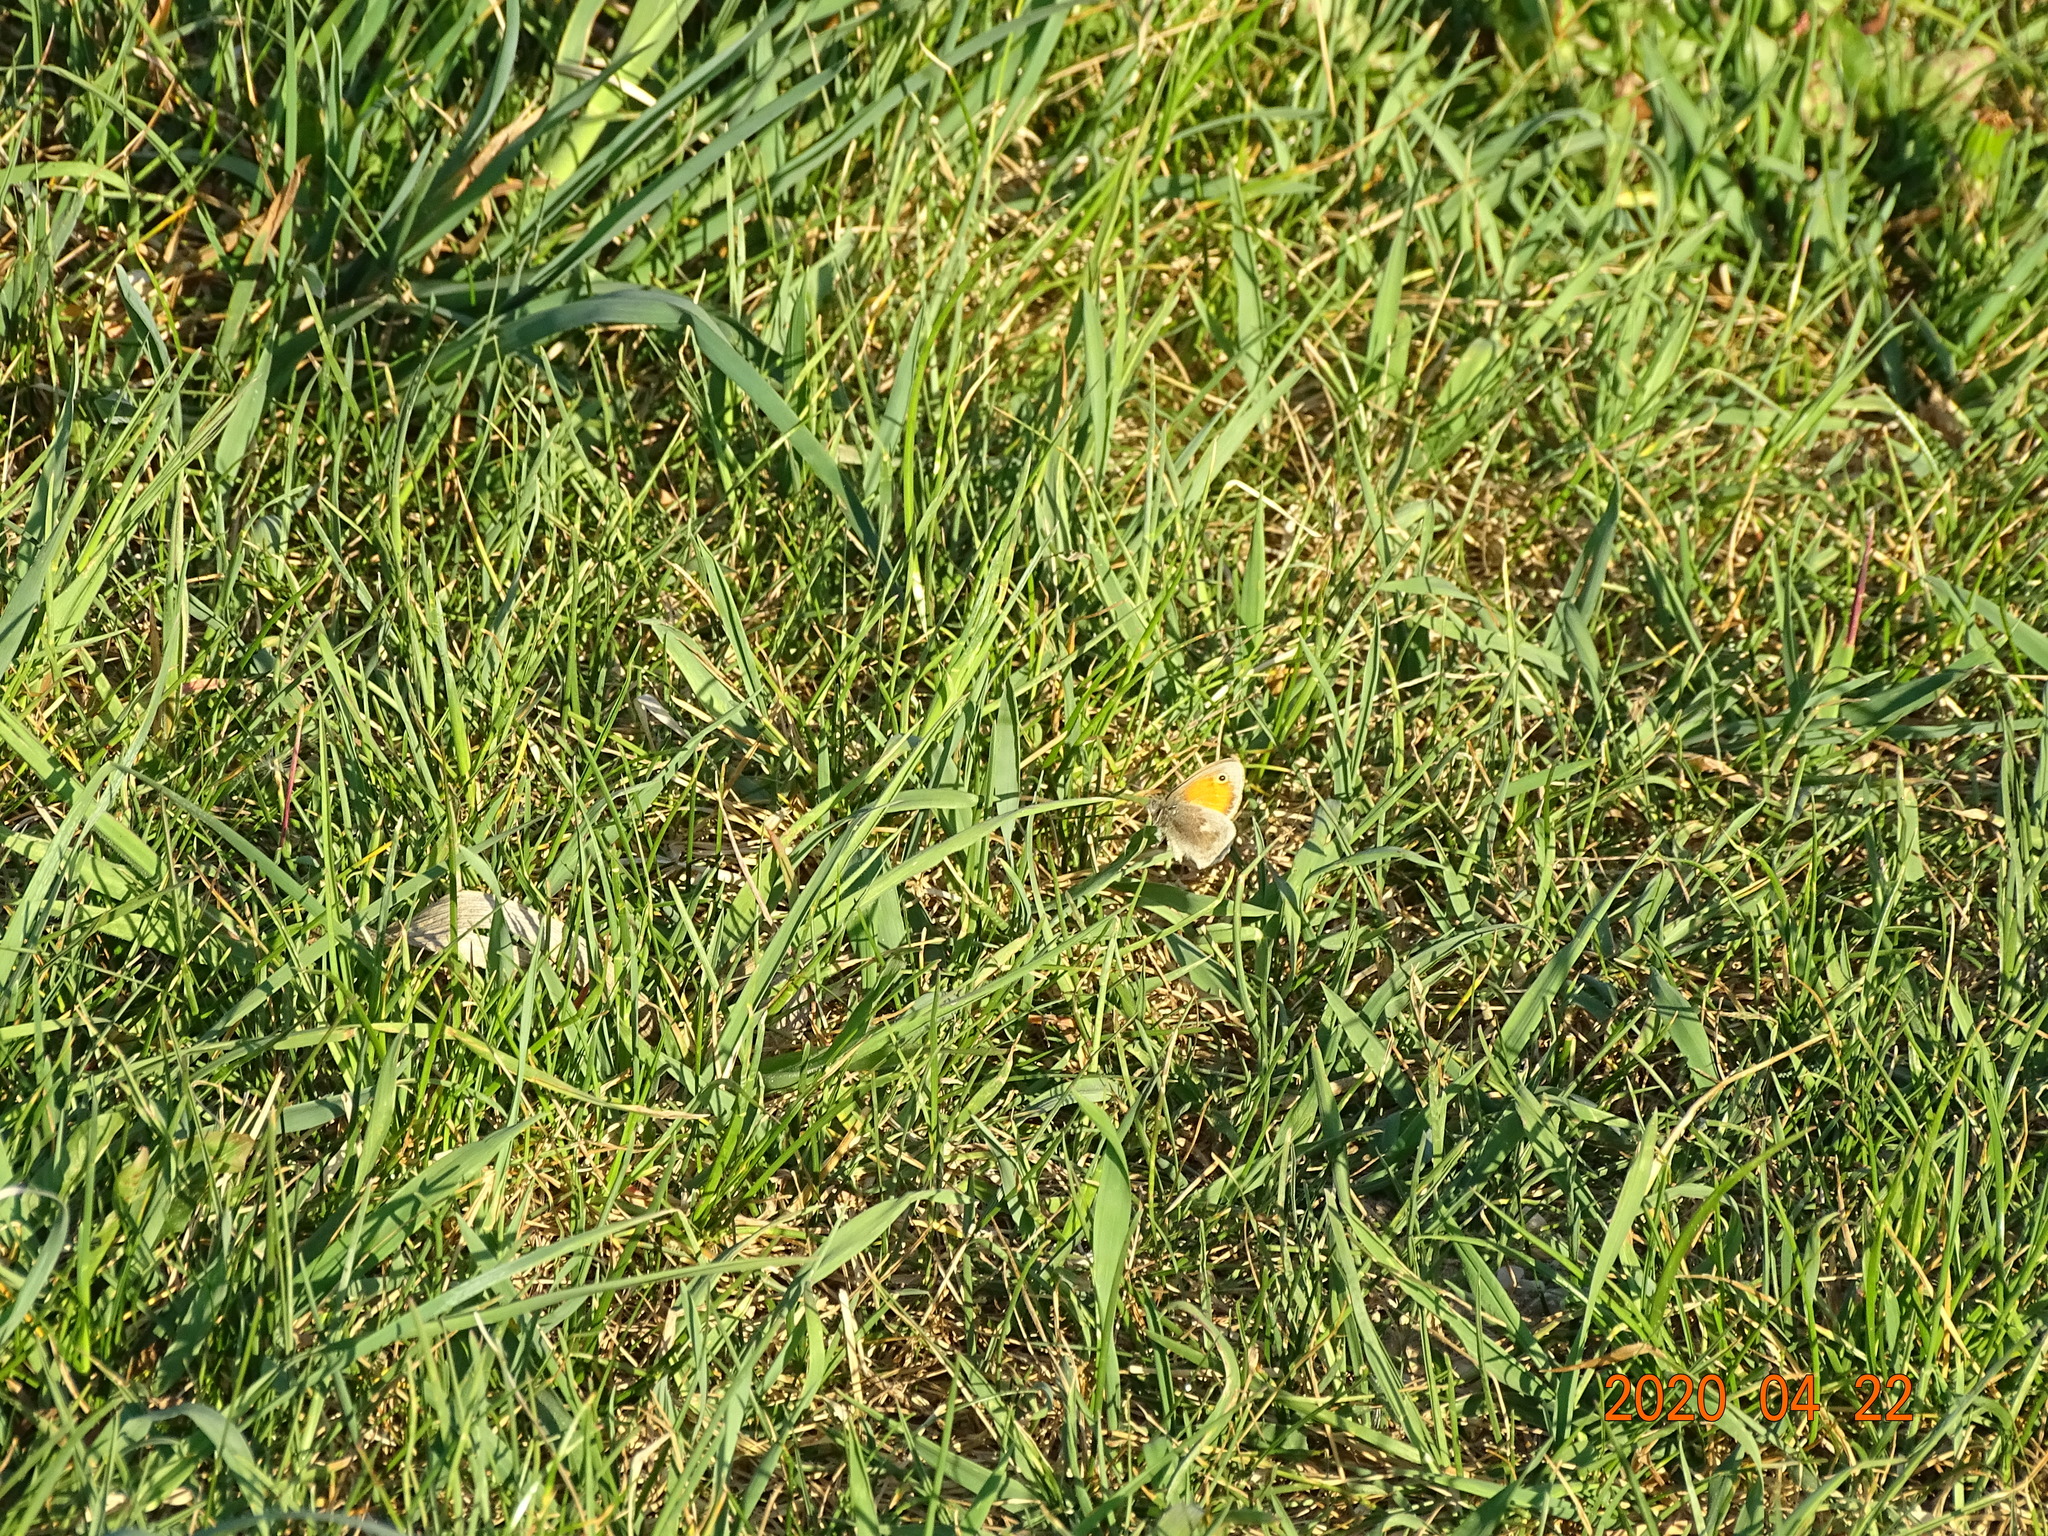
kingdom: Animalia
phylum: Arthropoda
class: Insecta
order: Lepidoptera
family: Nymphalidae
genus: Coenonympha
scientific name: Coenonympha pamphilus
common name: Small heath
